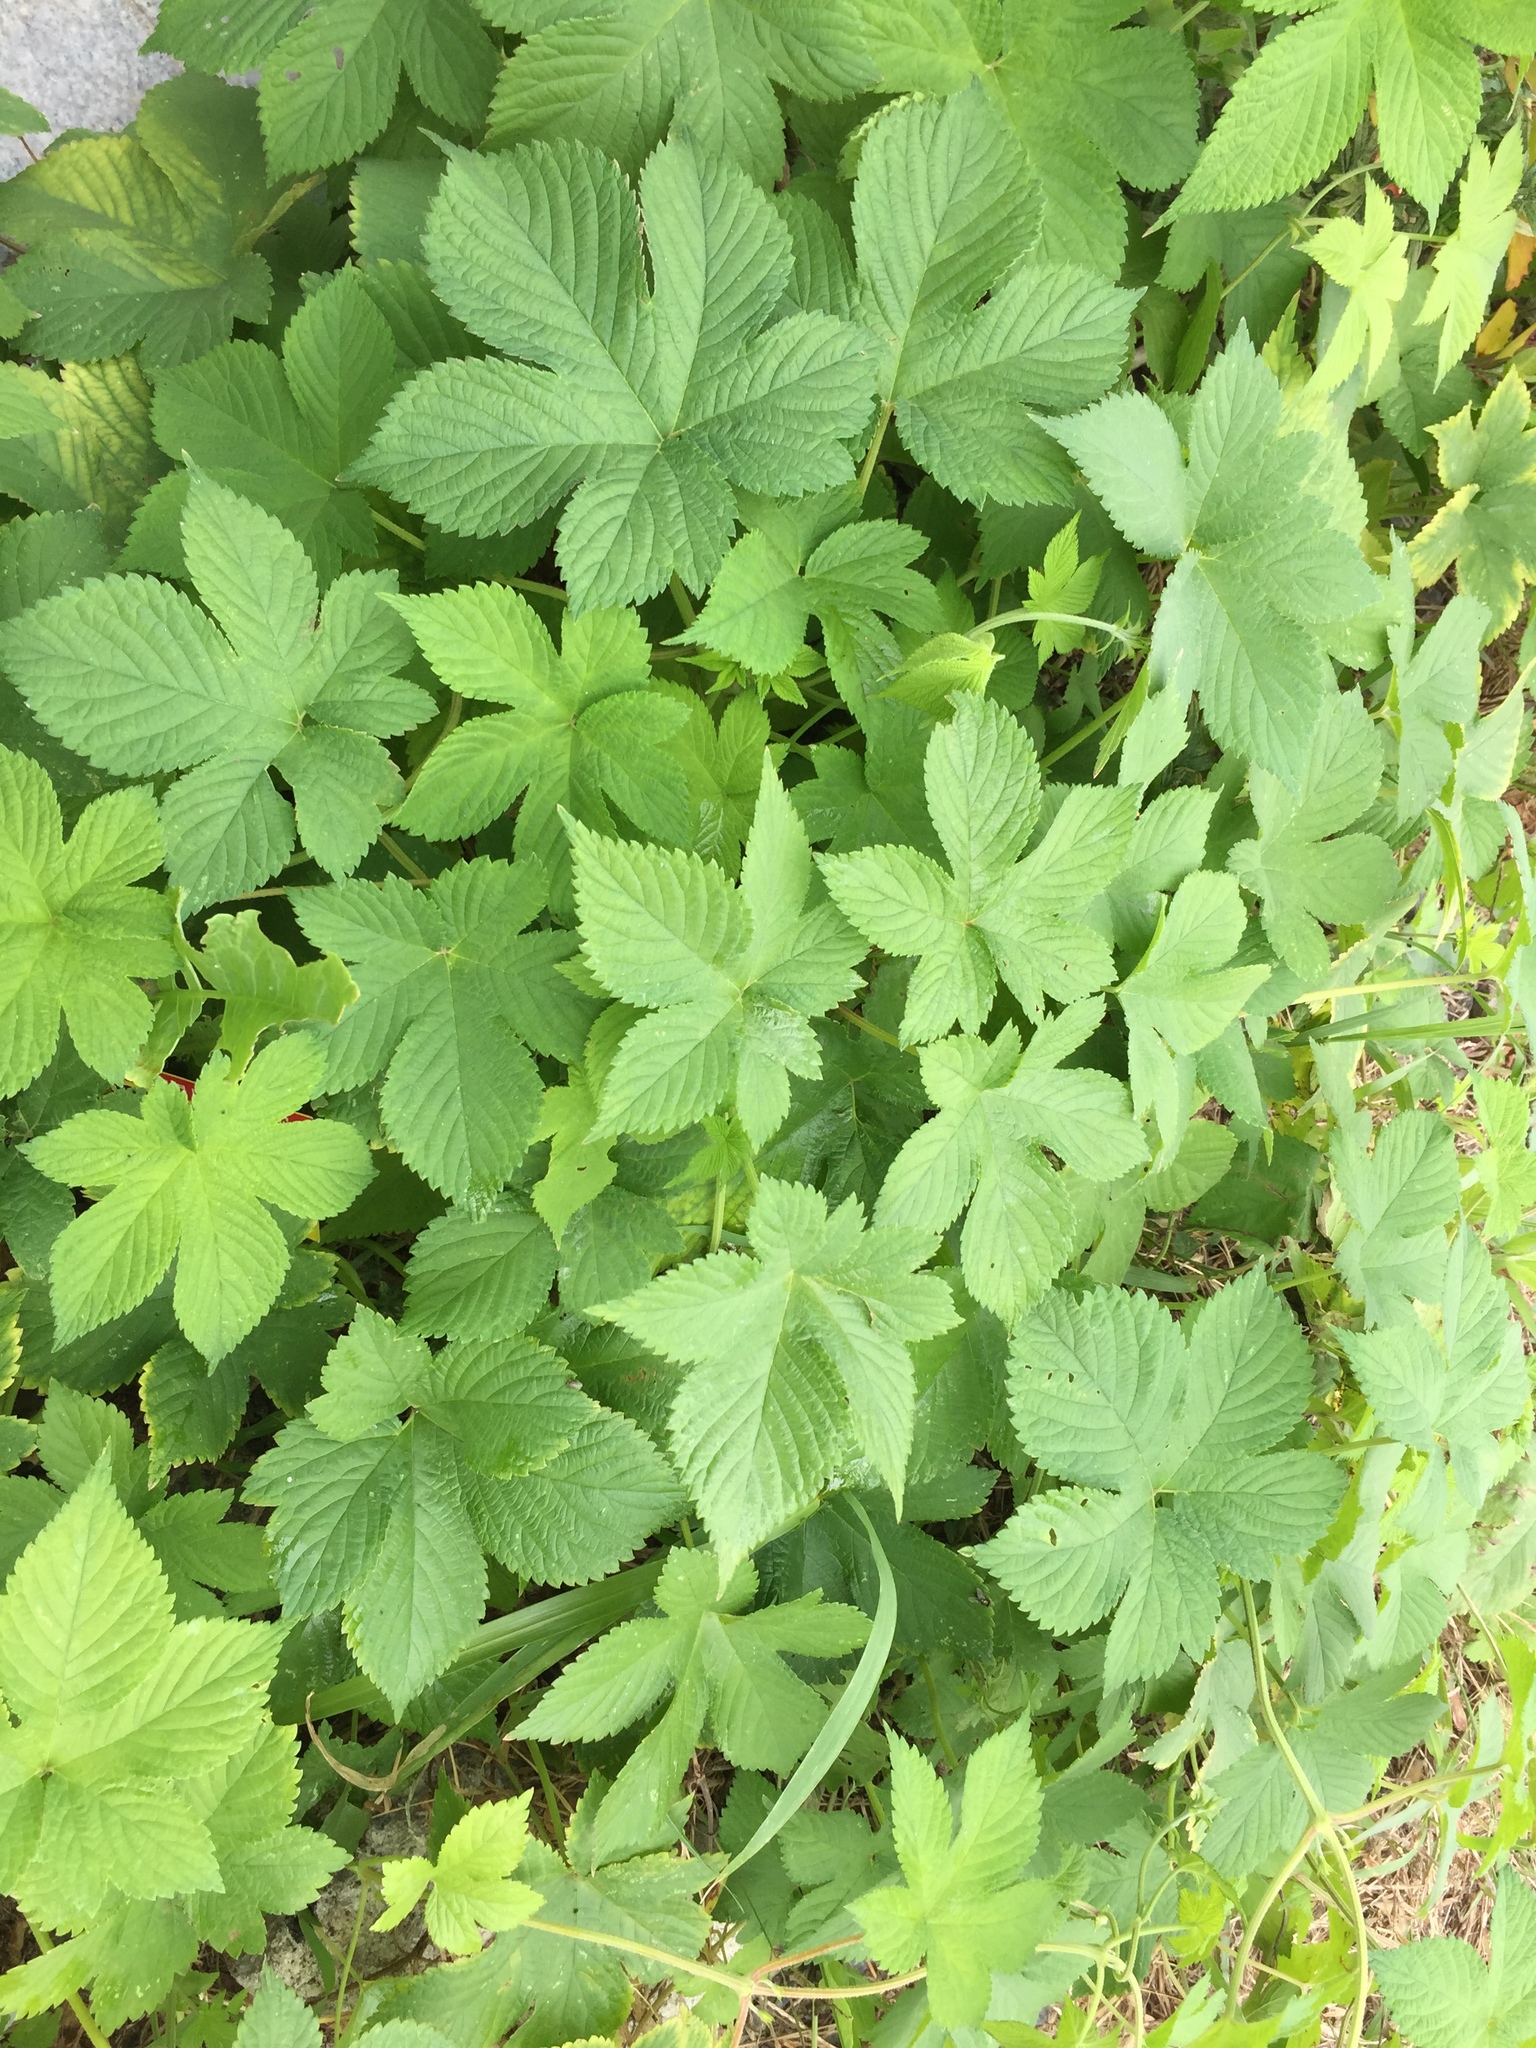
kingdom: Plantae
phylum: Tracheophyta
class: Magnoliopsida
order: Rosales
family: Cannabaceae
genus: Humulus
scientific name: Humulus scandens
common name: Japanese hop
